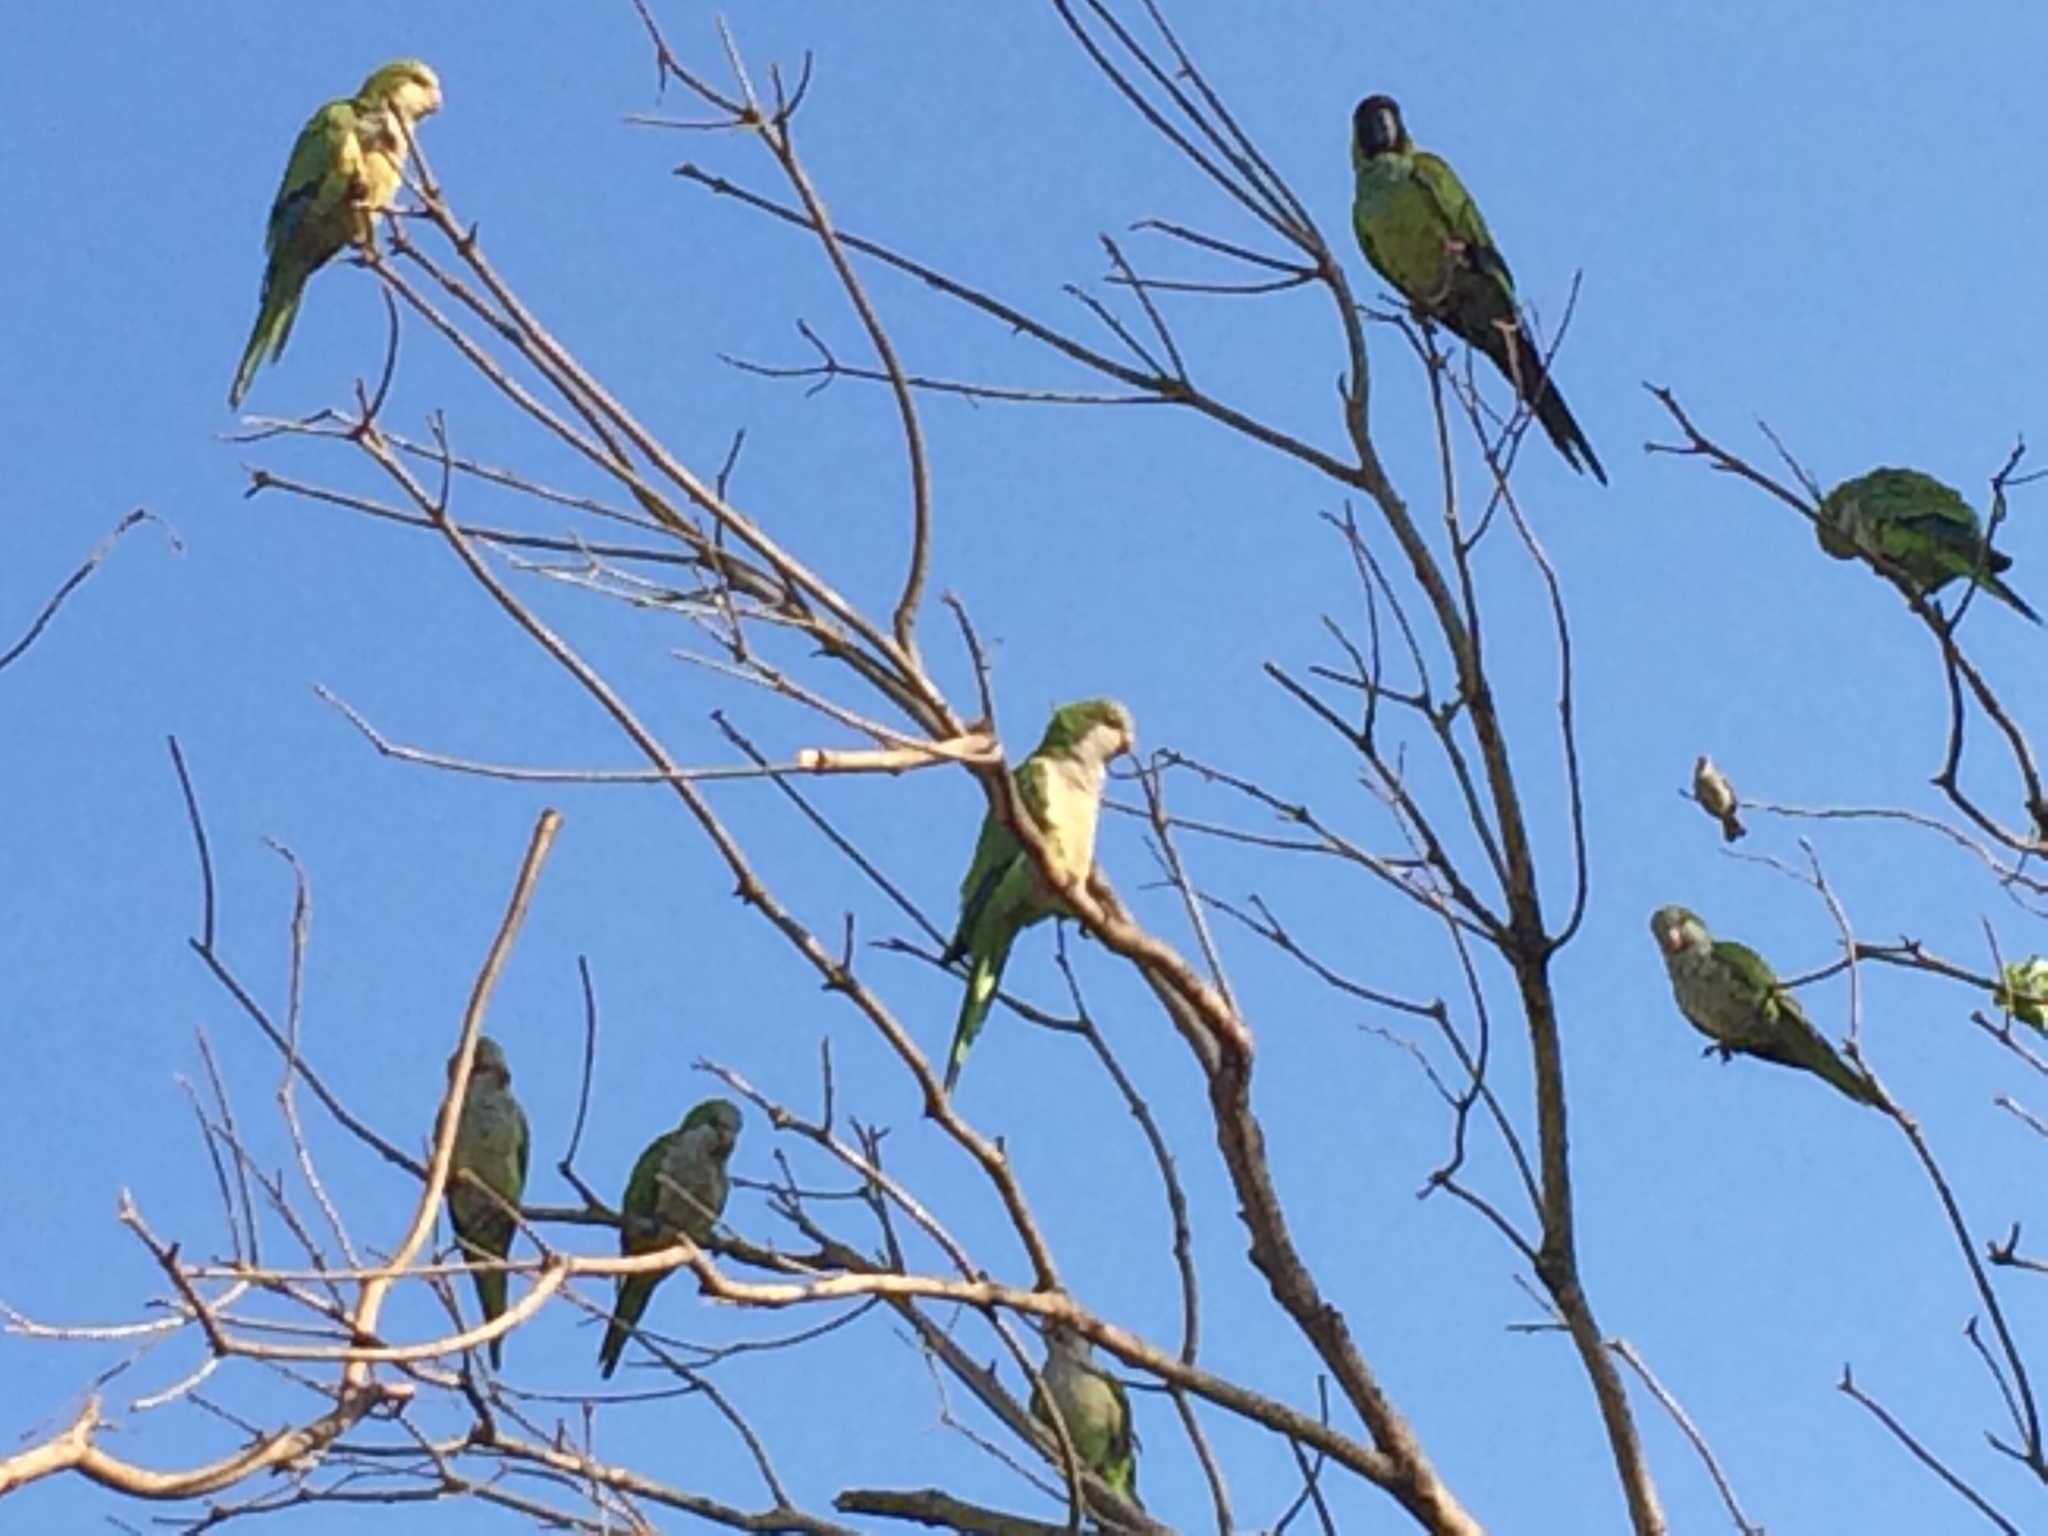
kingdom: Animalia
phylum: Chordata
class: Aves
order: Psittaciformes
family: Psittacidae
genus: Myiopsitta
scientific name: Myiopsitta monachus
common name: Monk parakeet
